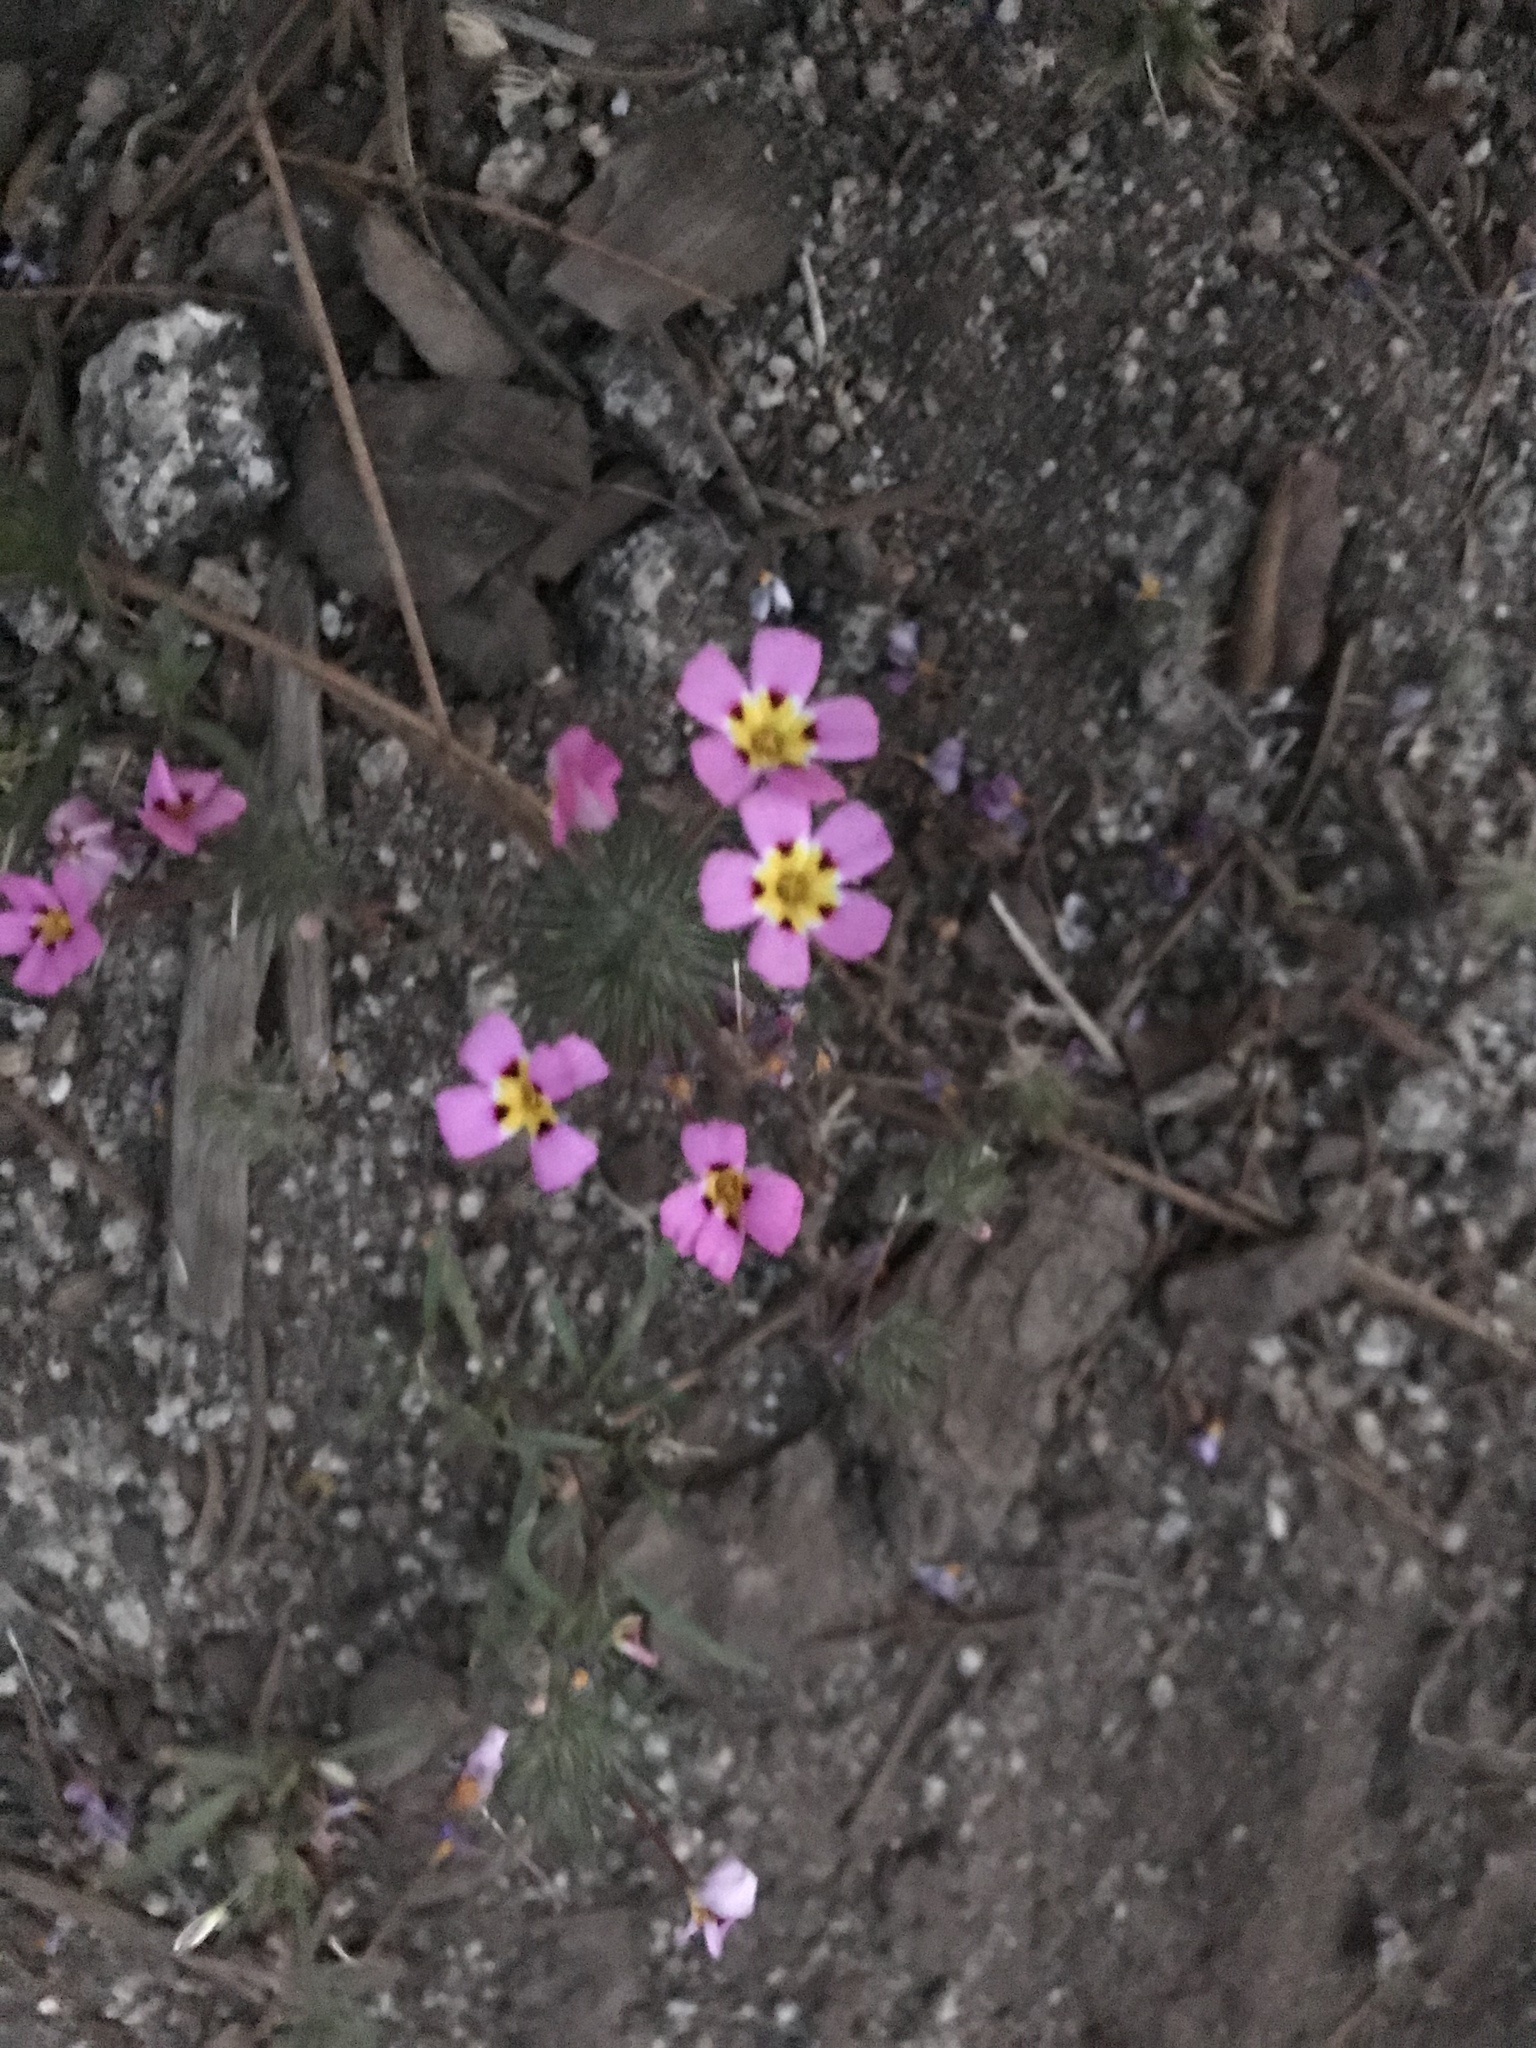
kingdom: Plantae
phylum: Tracheophyta
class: Magnoliopsida
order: Ericales
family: Polemoniaceae
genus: Leptosiphon
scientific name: Leptosiphon ciliatus
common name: Whiskerbrush
